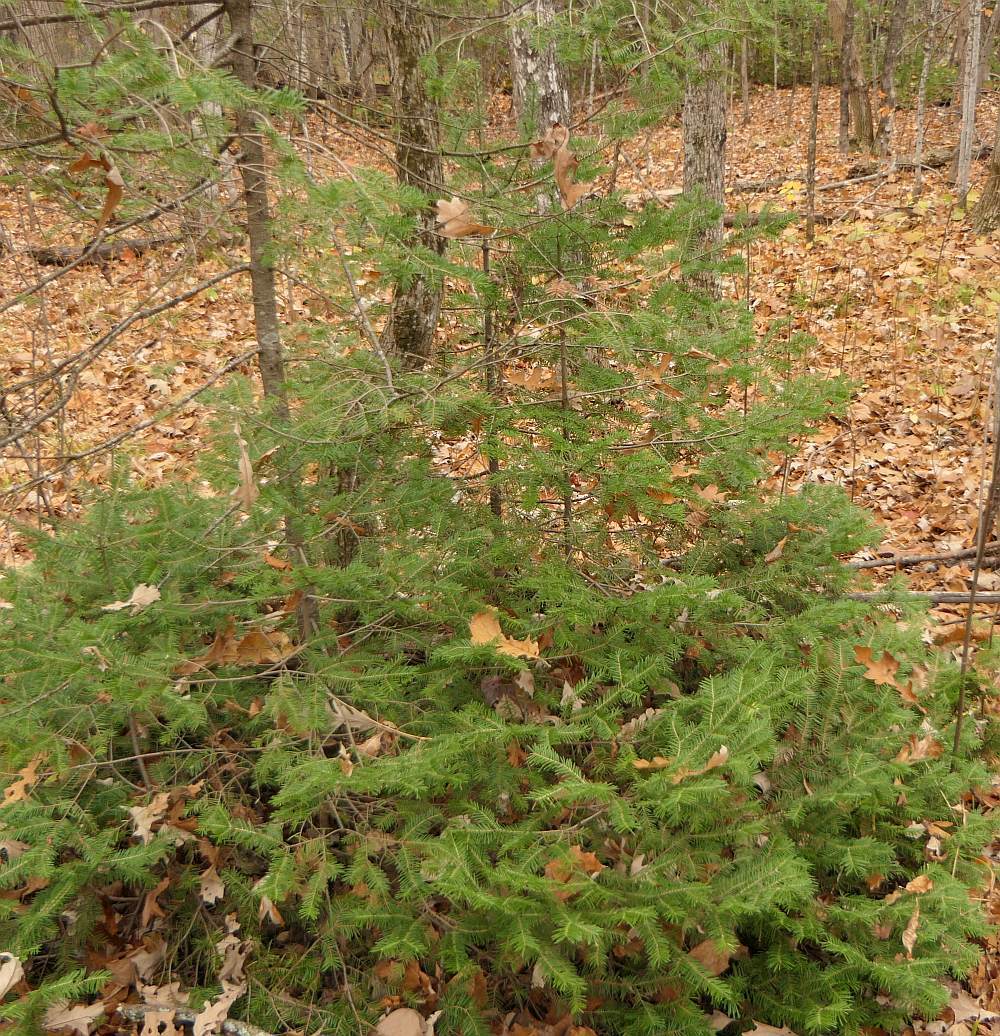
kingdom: Plantae
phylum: Tracheophyta
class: Pinopsida
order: Pinales
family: Pinaceae
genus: Abies
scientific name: Abies balsamea
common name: Balsam fir
